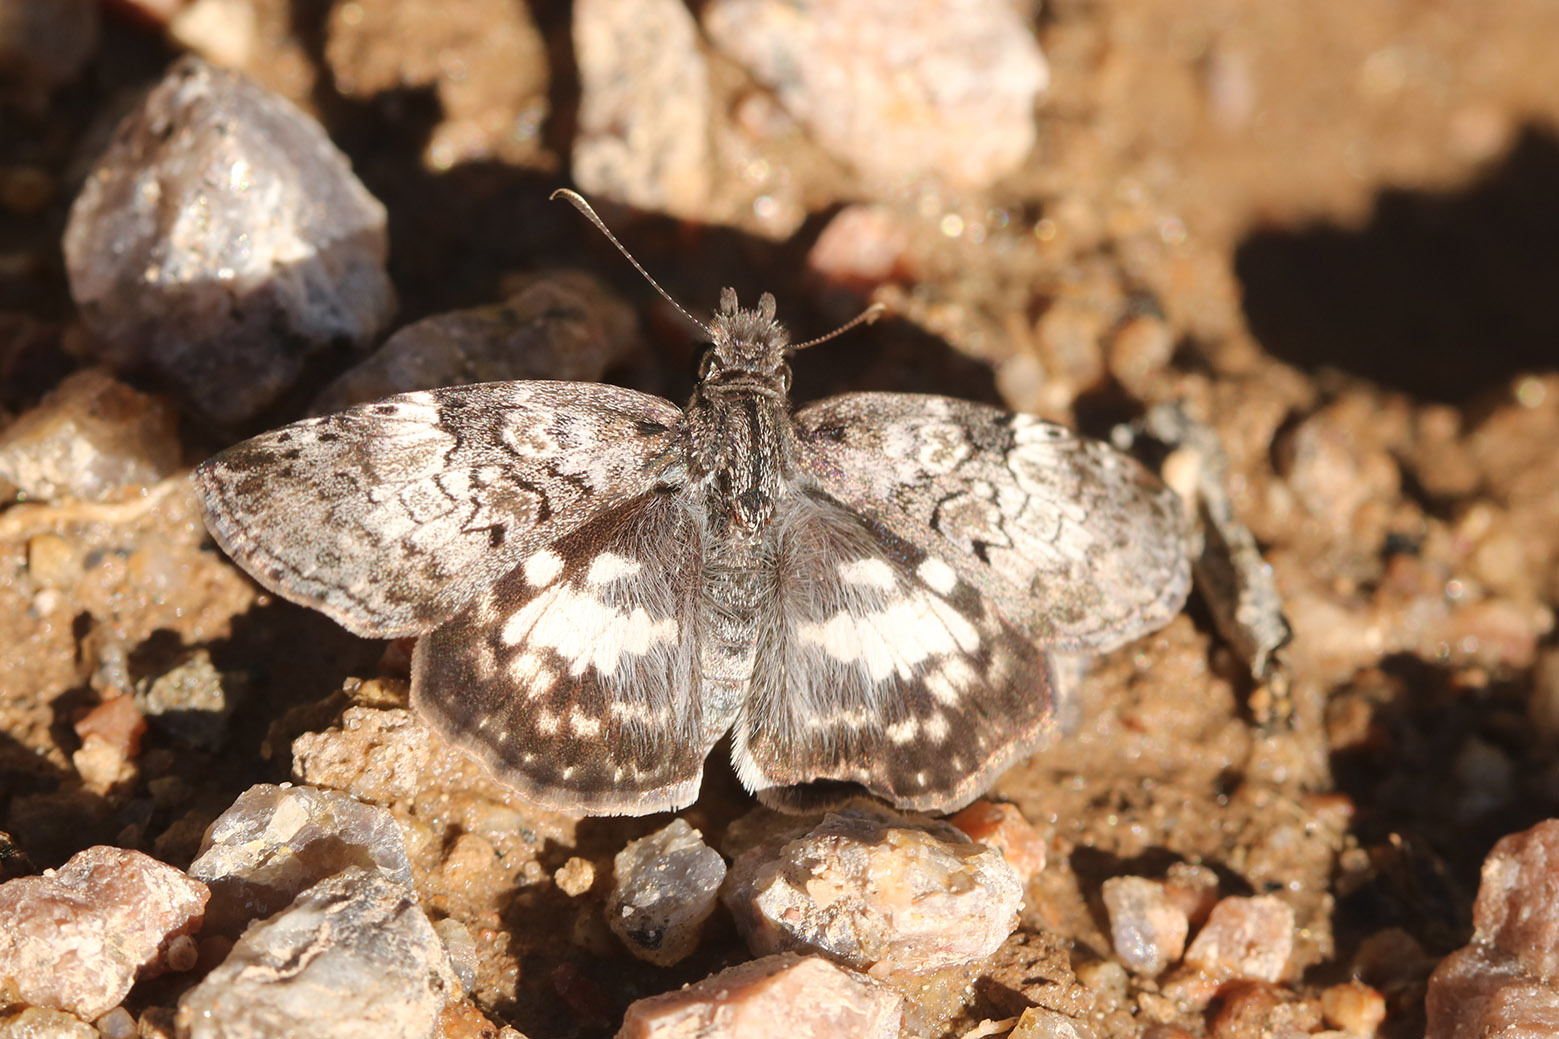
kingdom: Animalia
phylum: Arthropoda
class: Insecta
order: Lepidoptera
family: Hesperiidae
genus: Chiomara
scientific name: Chiomara asychis
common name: White-patterned skipper
